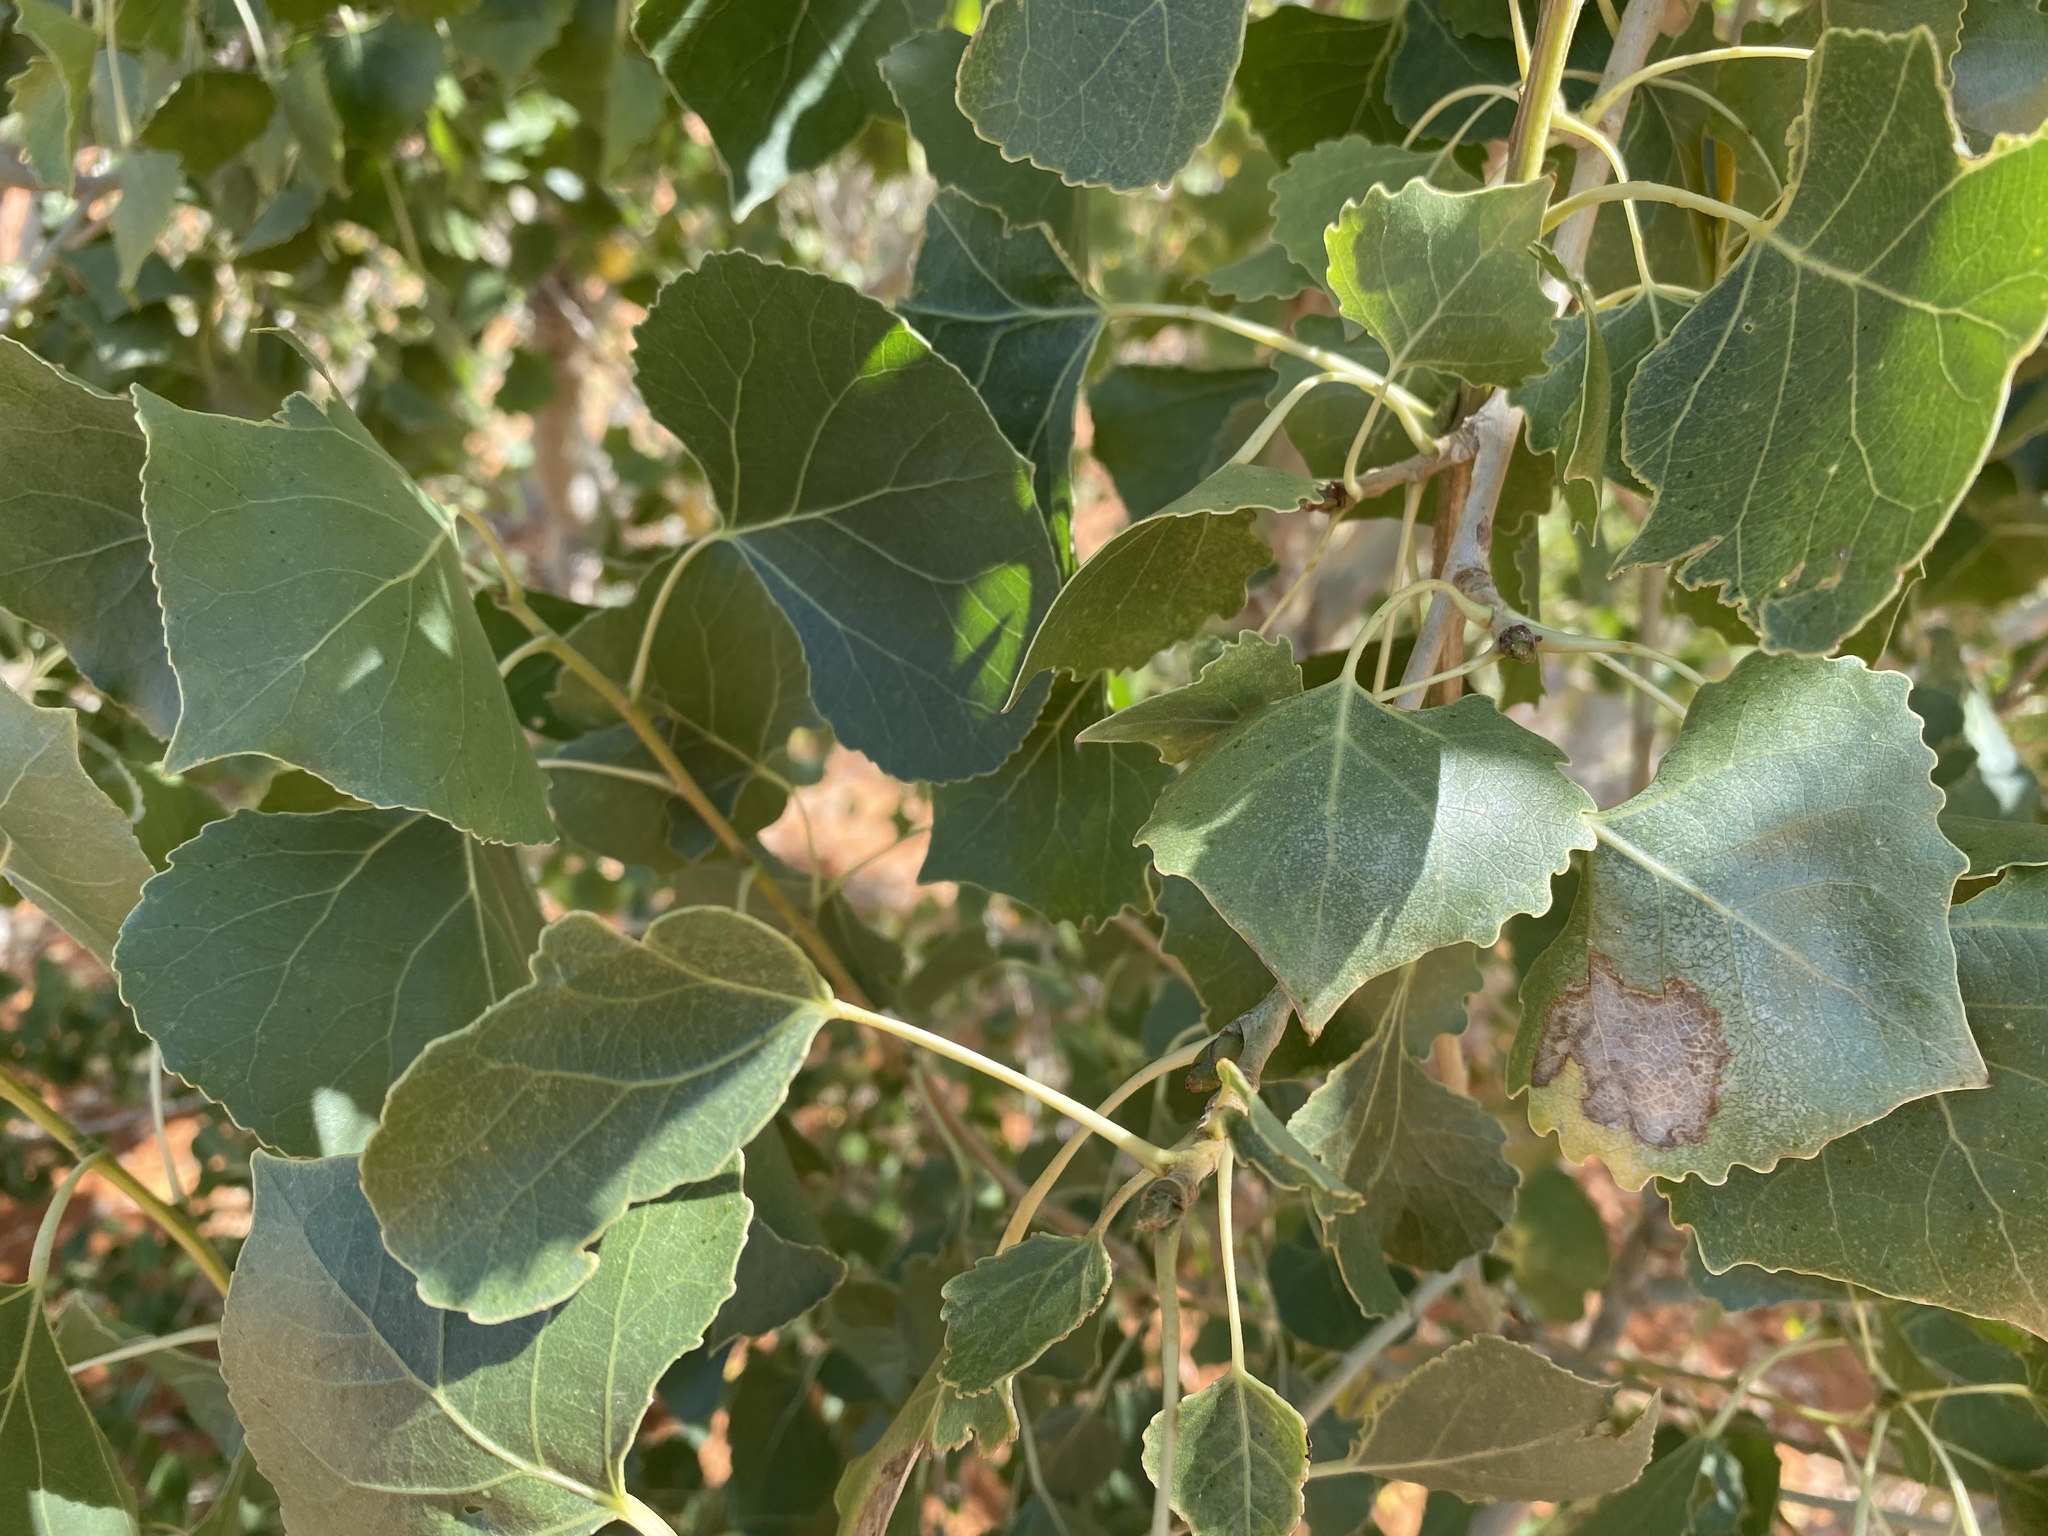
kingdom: Plantae
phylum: Tracheophyta
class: Magnoliopsida
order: Malpighiales
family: Salicaceae
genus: Populus
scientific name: Populus fremontii
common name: Fremont's cottonwood
